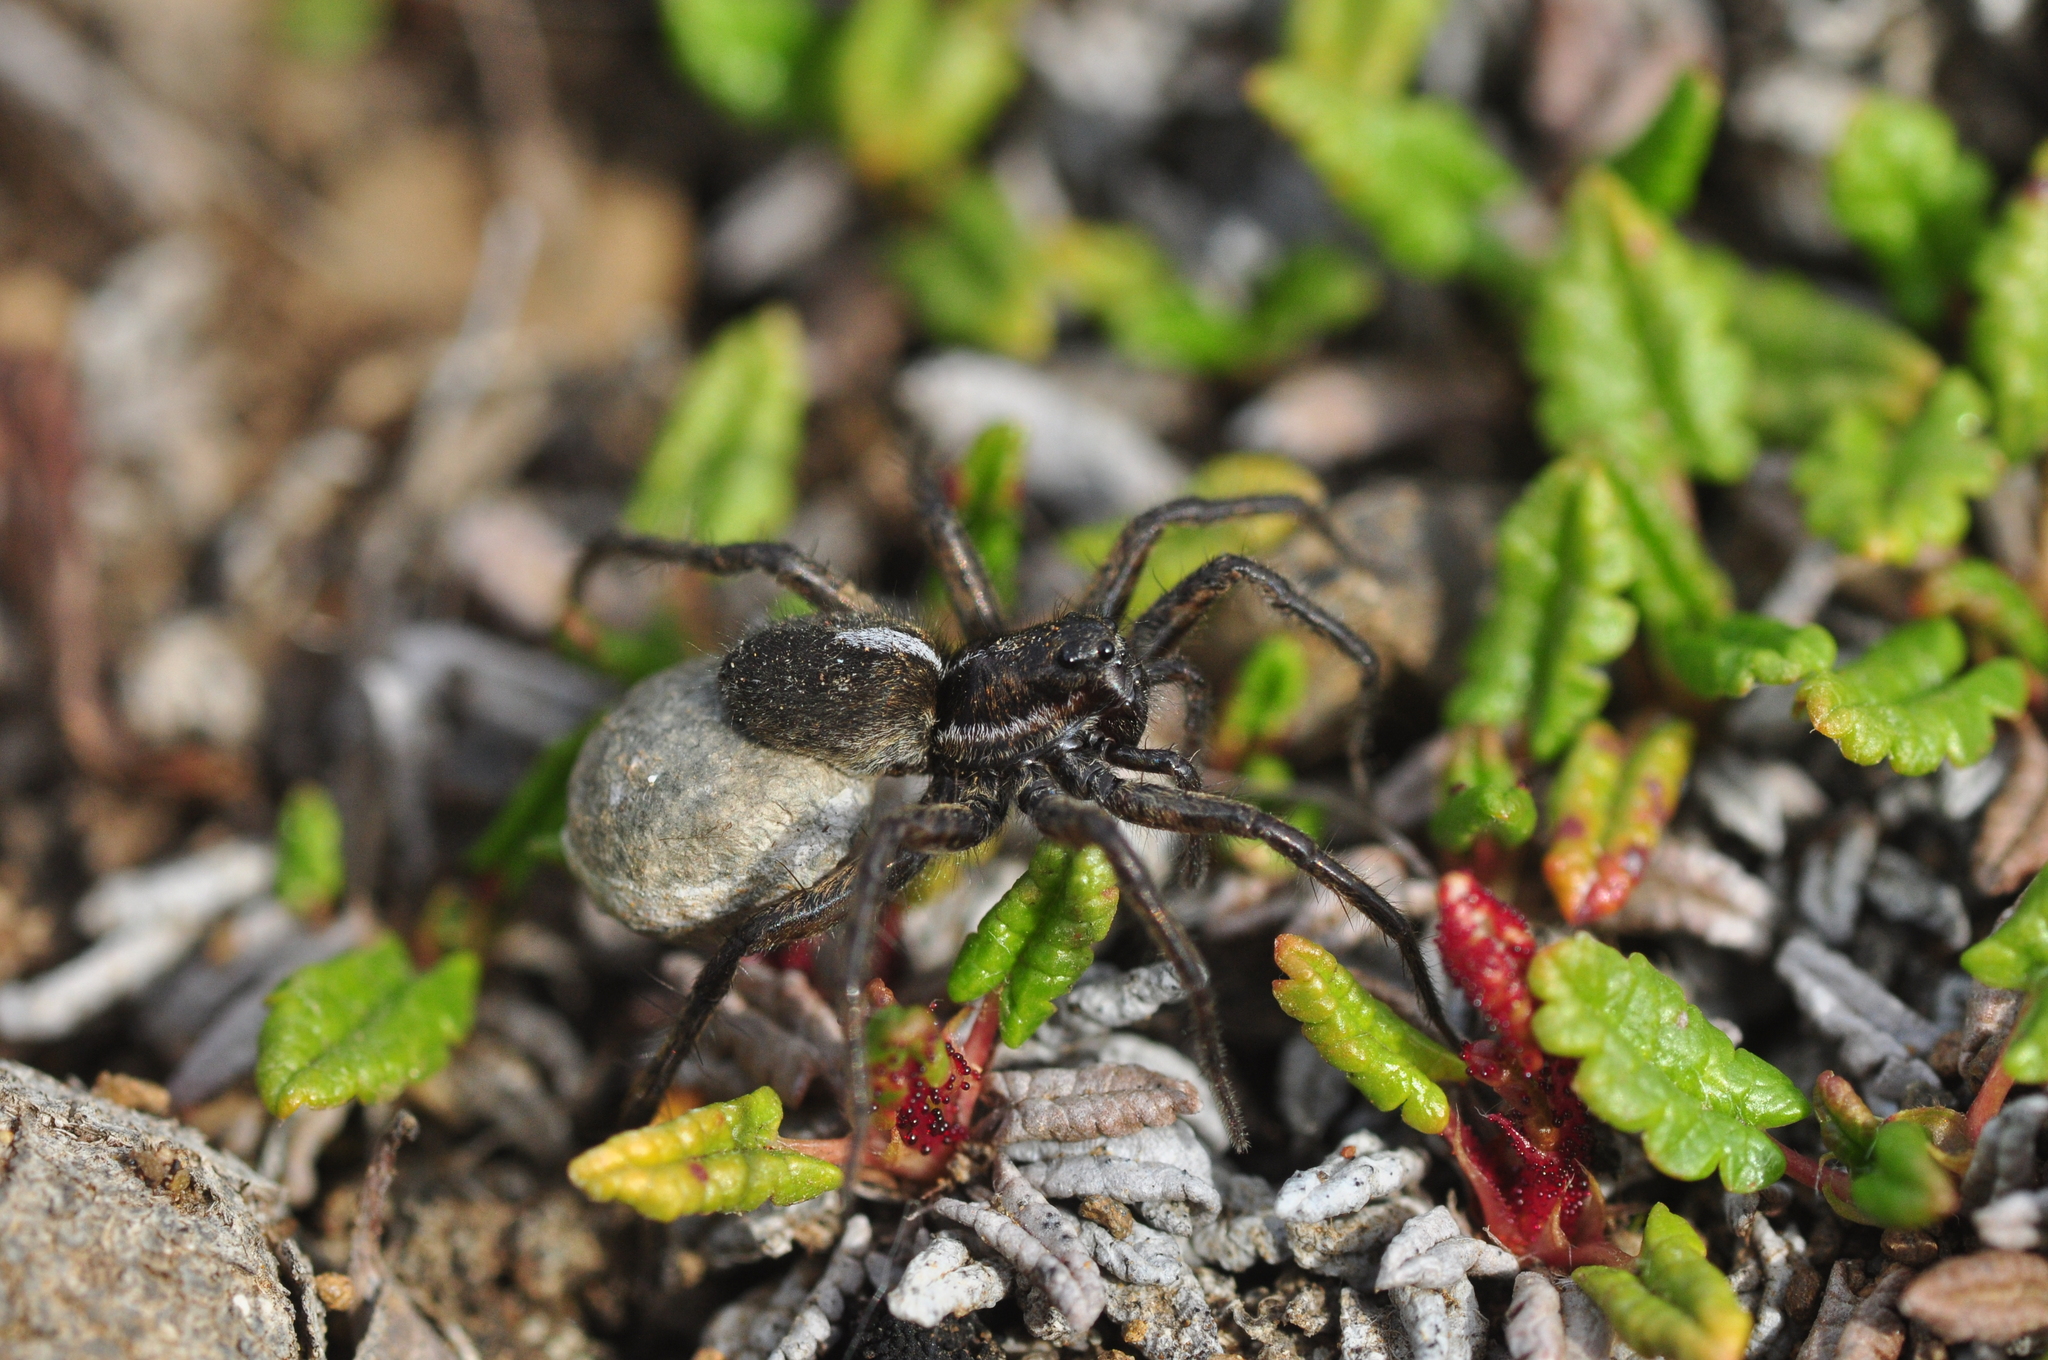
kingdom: Animalia
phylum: Arthropoda
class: Arachnida
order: Araneae
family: Lycosidae
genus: Pardosa
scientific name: Pardosa glacialis
